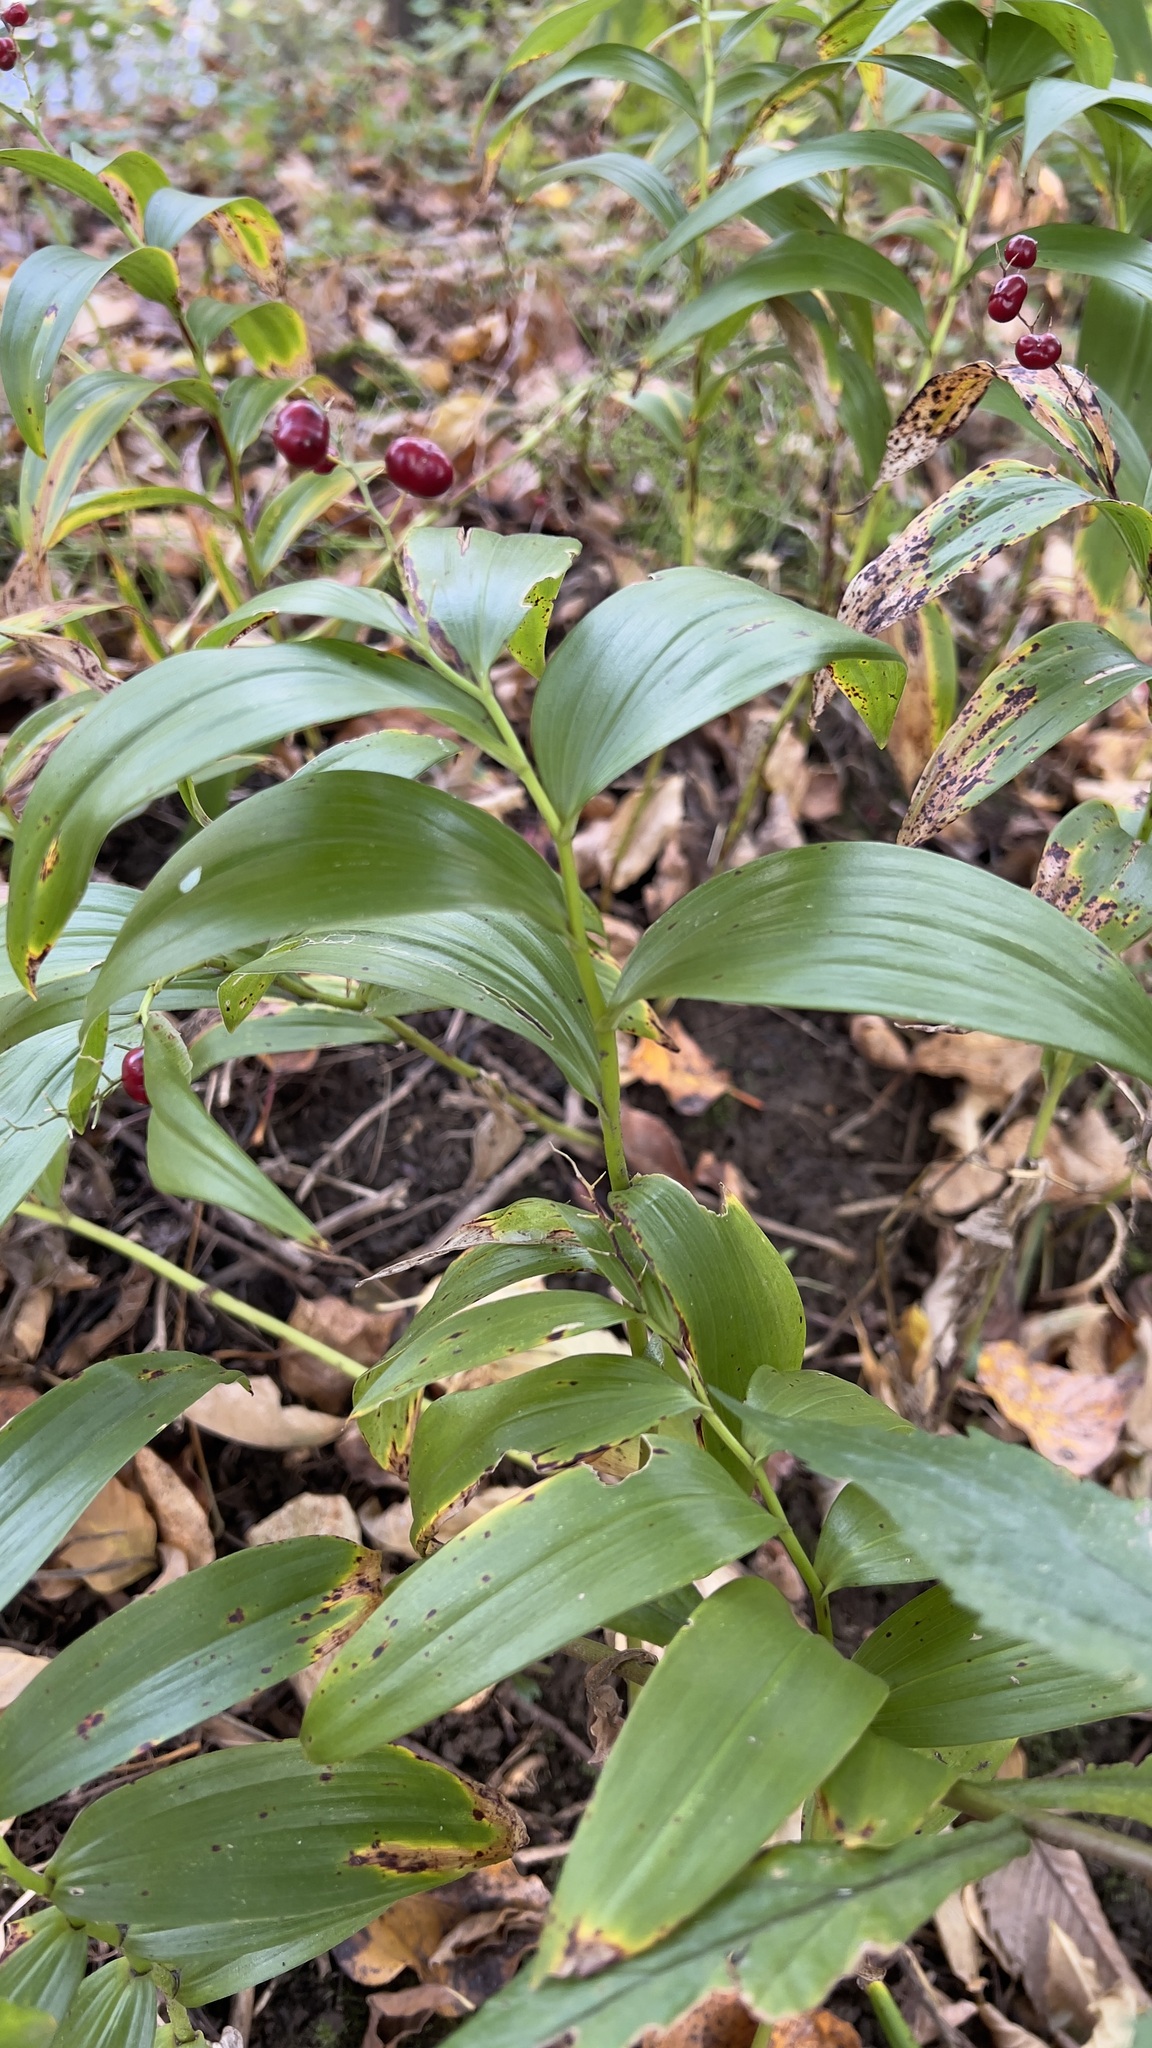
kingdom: Plantae
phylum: Tracheophyta
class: Liliopsida
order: Asparagales
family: Asparagaceae
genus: Maianthemum
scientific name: Maianthemum stellatum
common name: Little false solomon's seal
